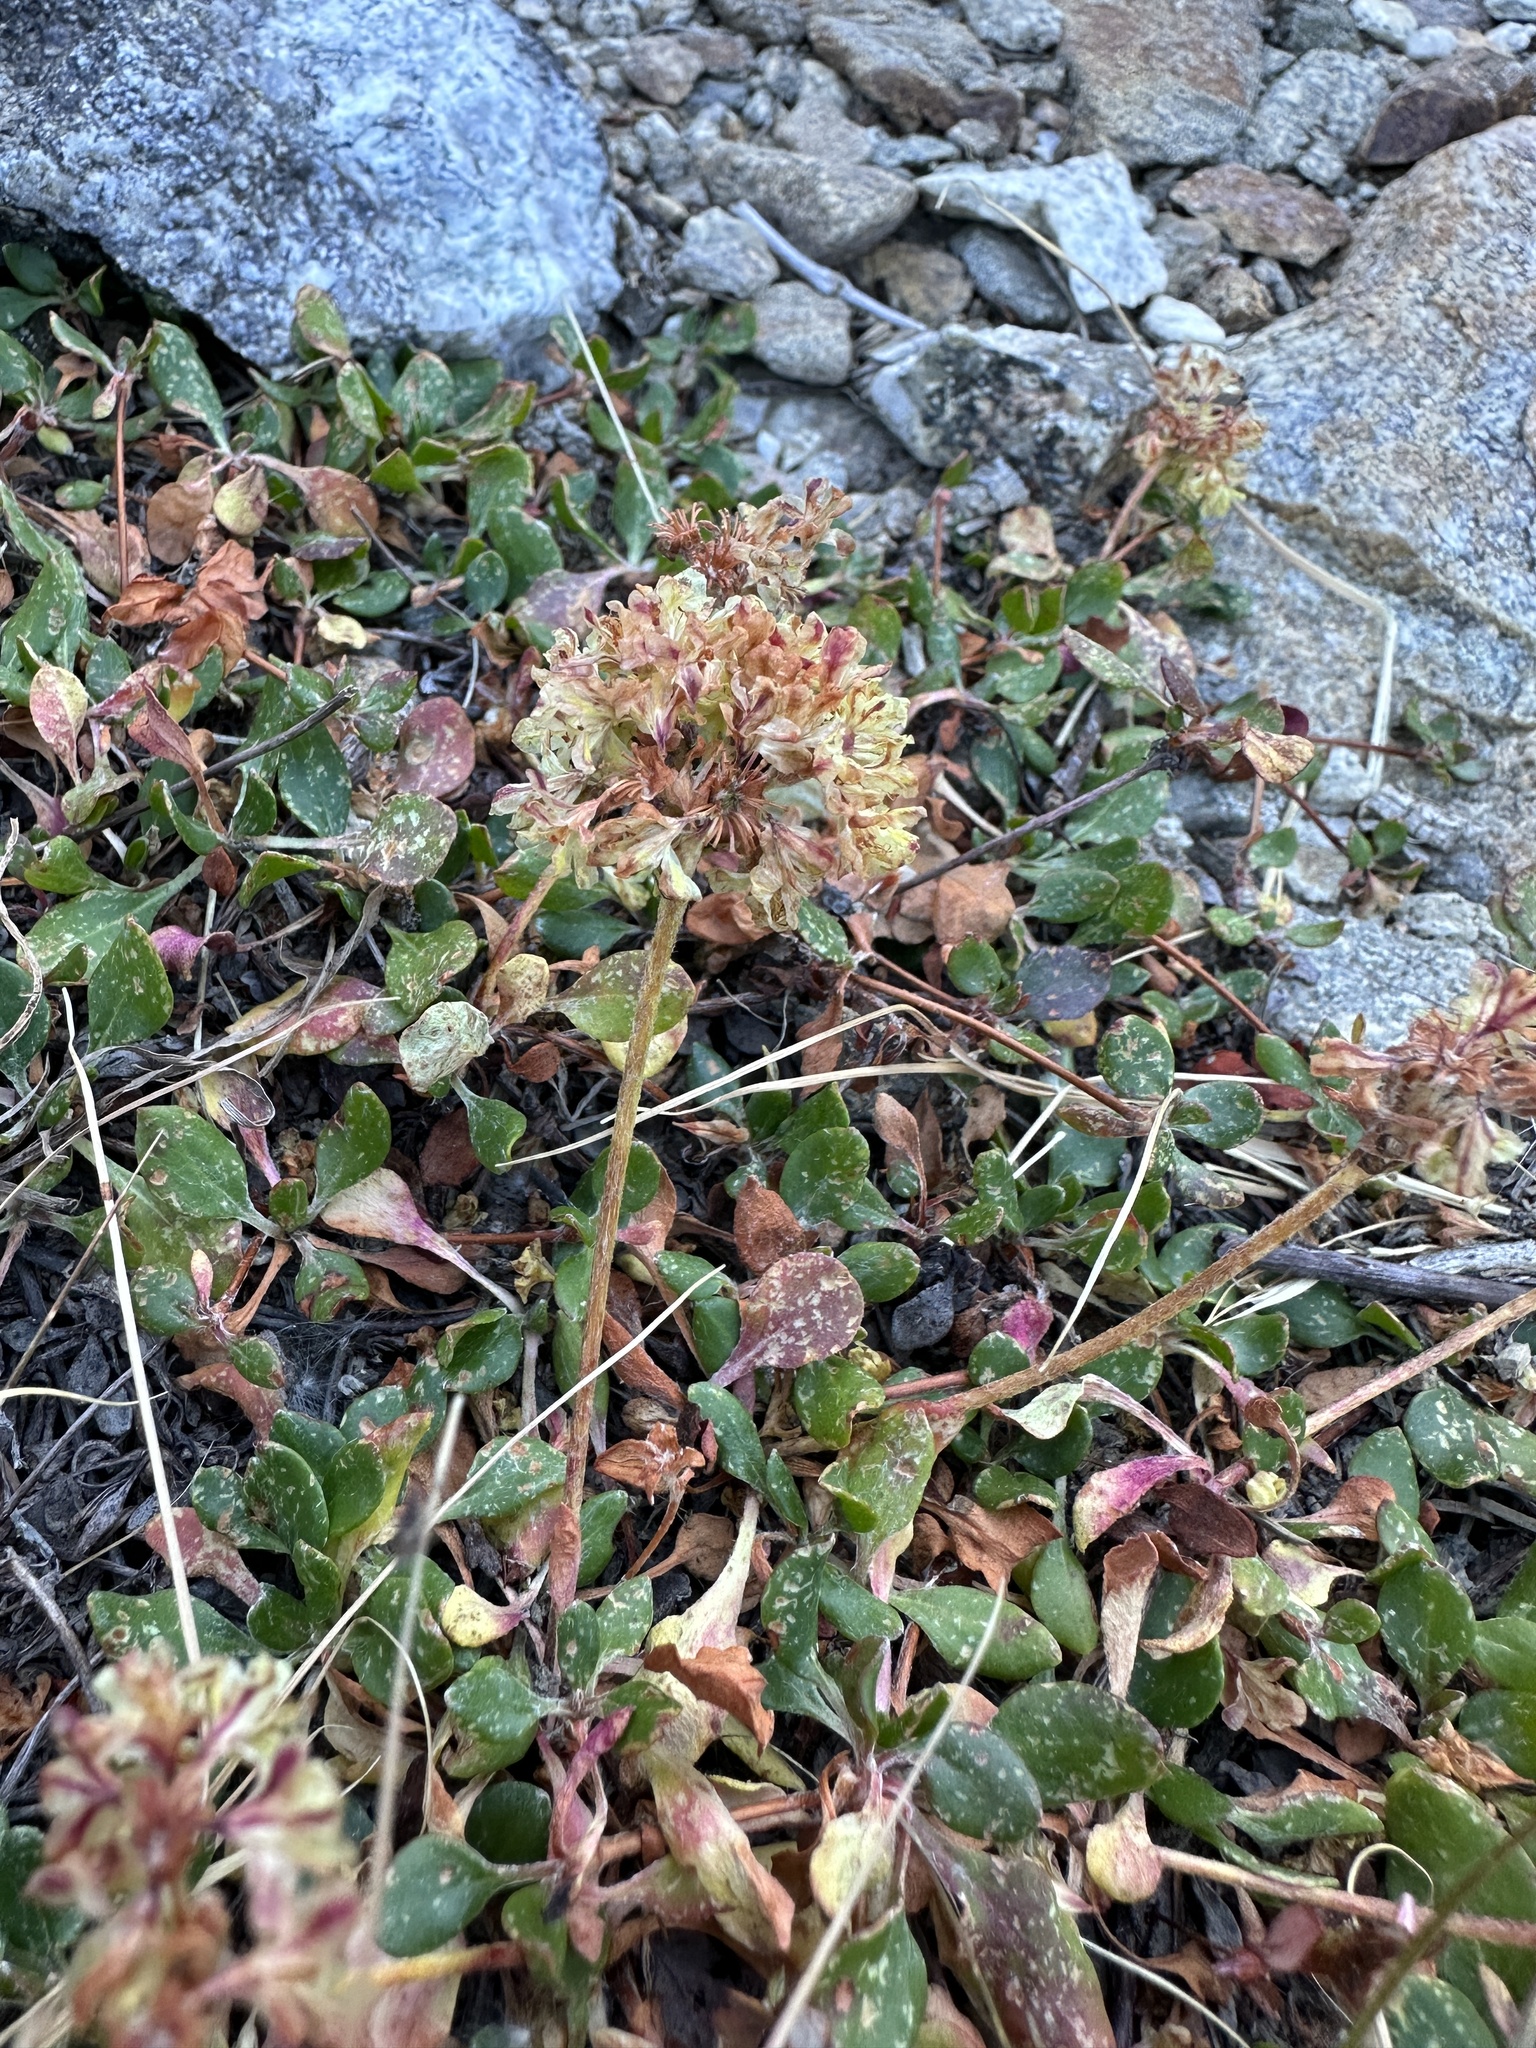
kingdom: Plantae
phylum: Tracheophyta
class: Magnoliopsida
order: Caryophyllales
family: Polygonaceae
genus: Eriogonum
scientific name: Eriogonum umbellatum
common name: Sulfur-buckwheat
